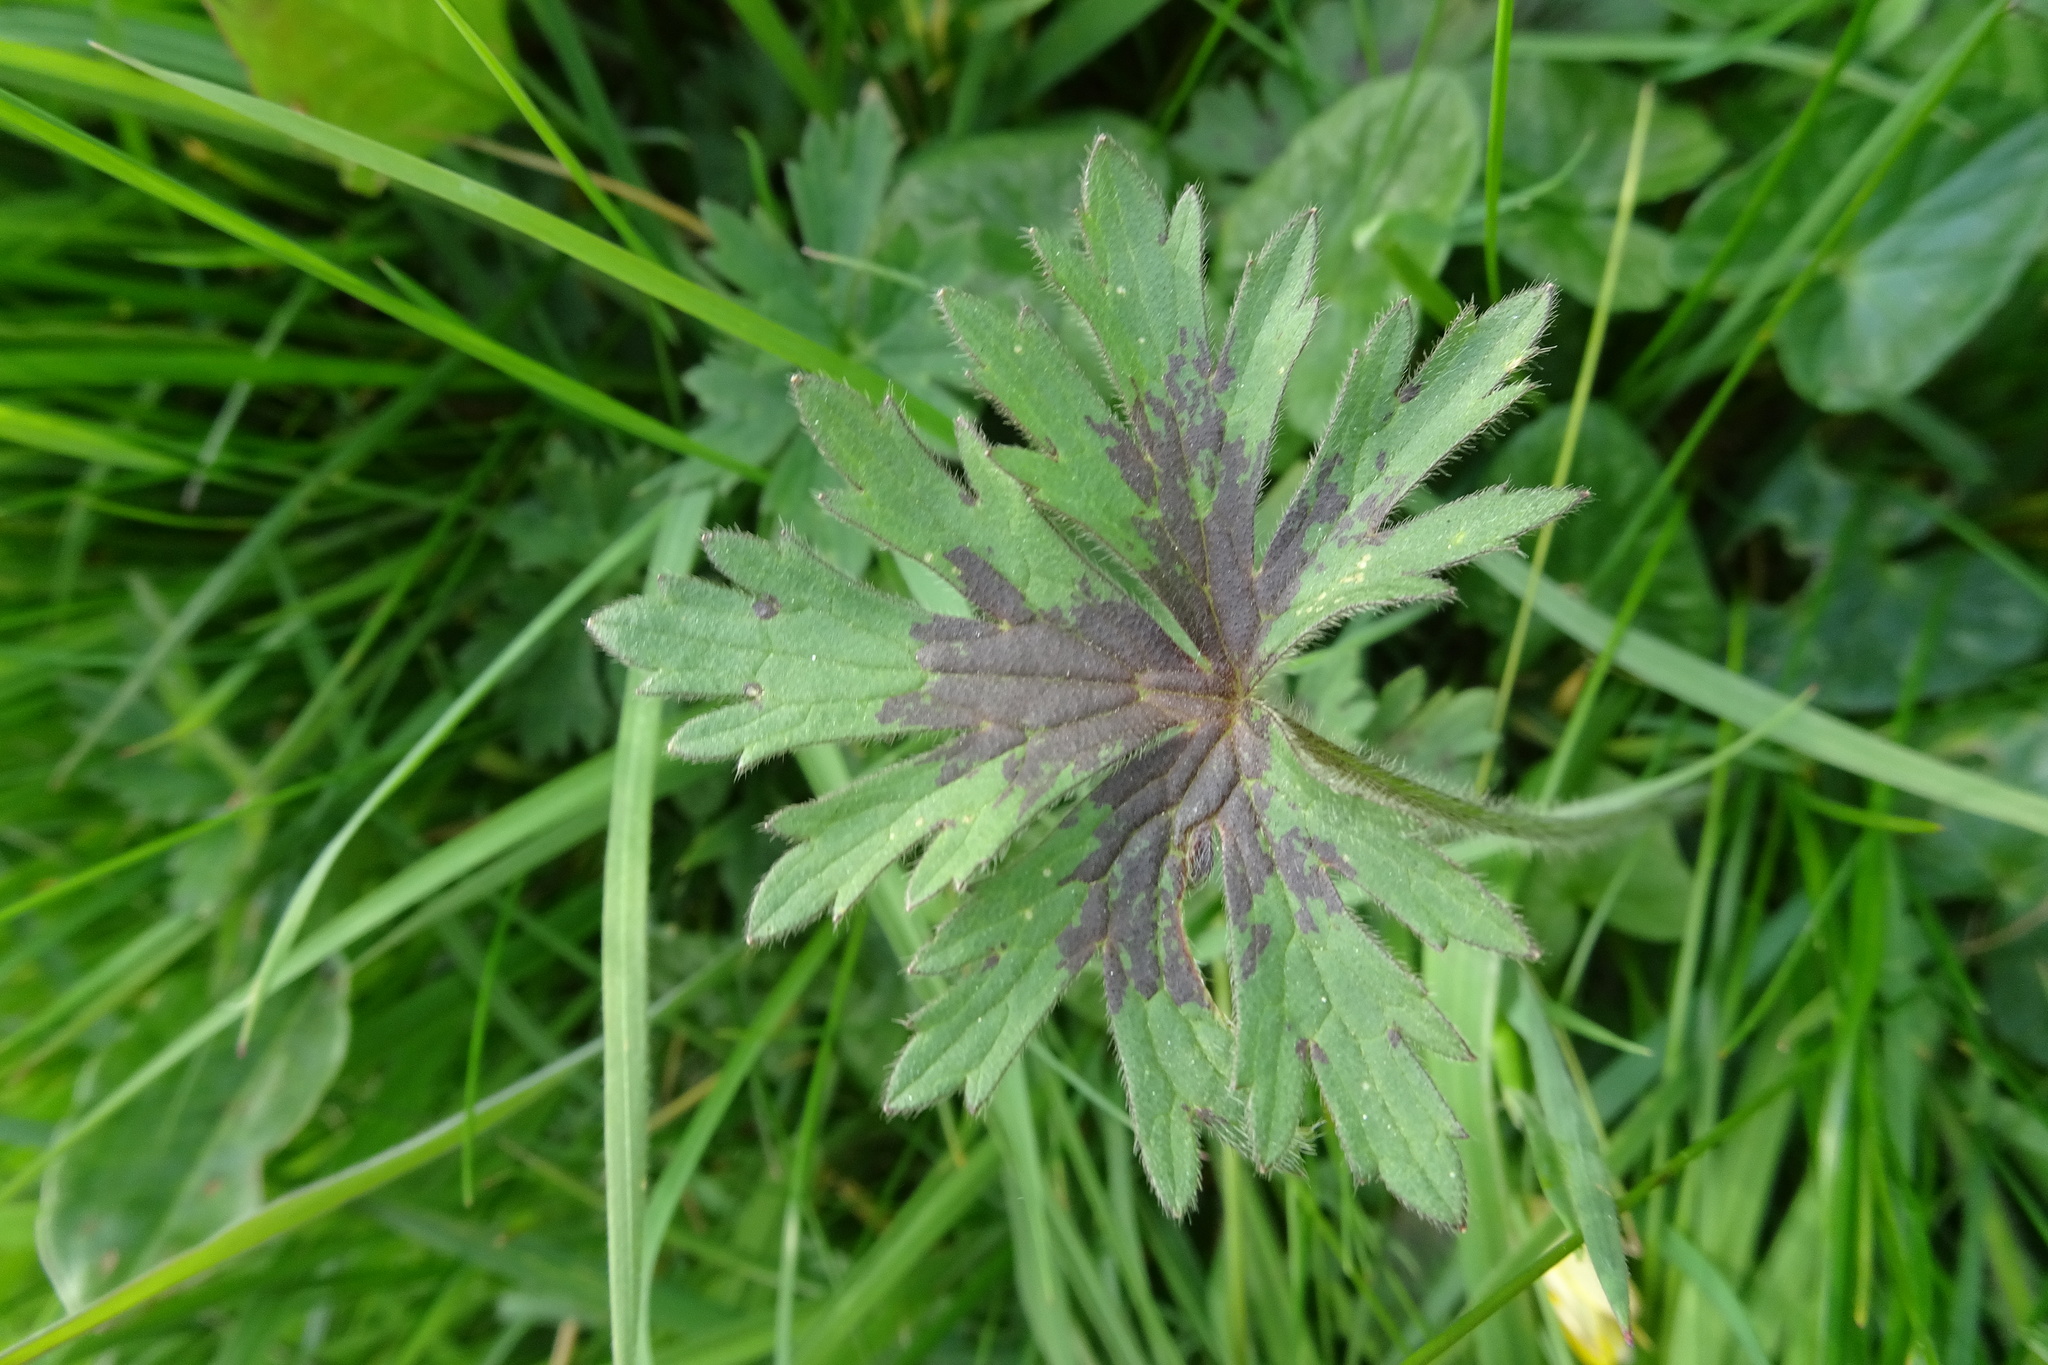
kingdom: Plantae
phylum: Tracheophyta
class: Magnoliopsida
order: Ranunculales
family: Ranunculaceae
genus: Ranunculus
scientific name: Ranunculus acris
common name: Meadow buttercup
